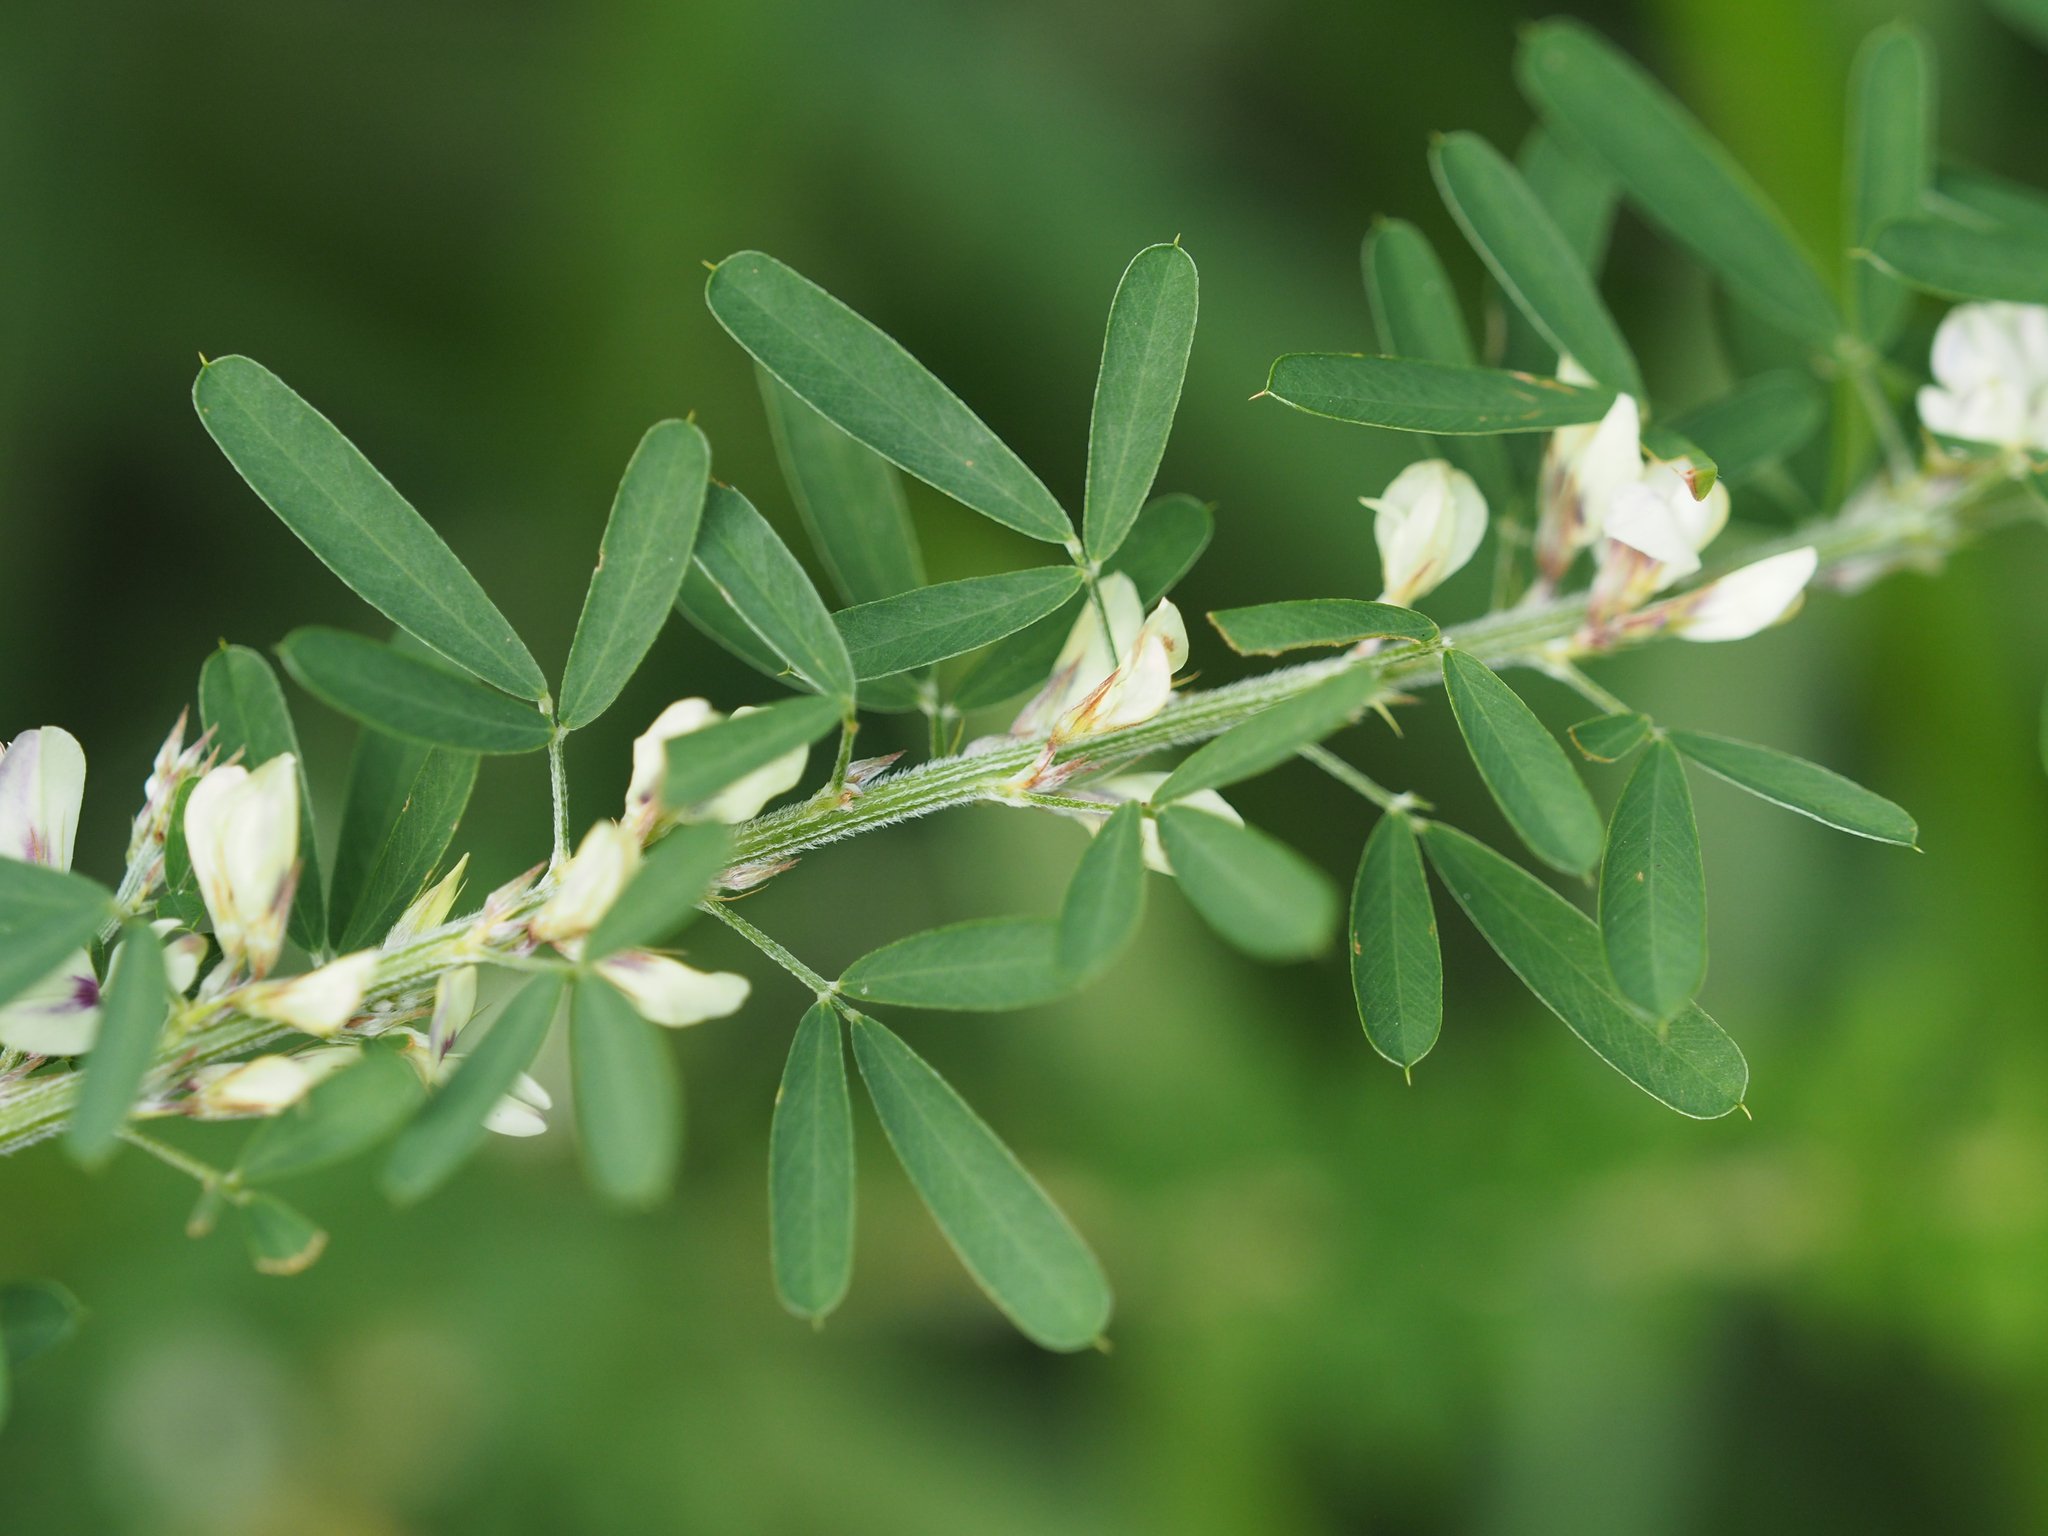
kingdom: Plantae
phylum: Tracheophyta
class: Magnoliopsida
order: Fabales
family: Fabaceae
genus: Lespedeza
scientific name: Lespedeza cuneata
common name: Chinese bush-clover
